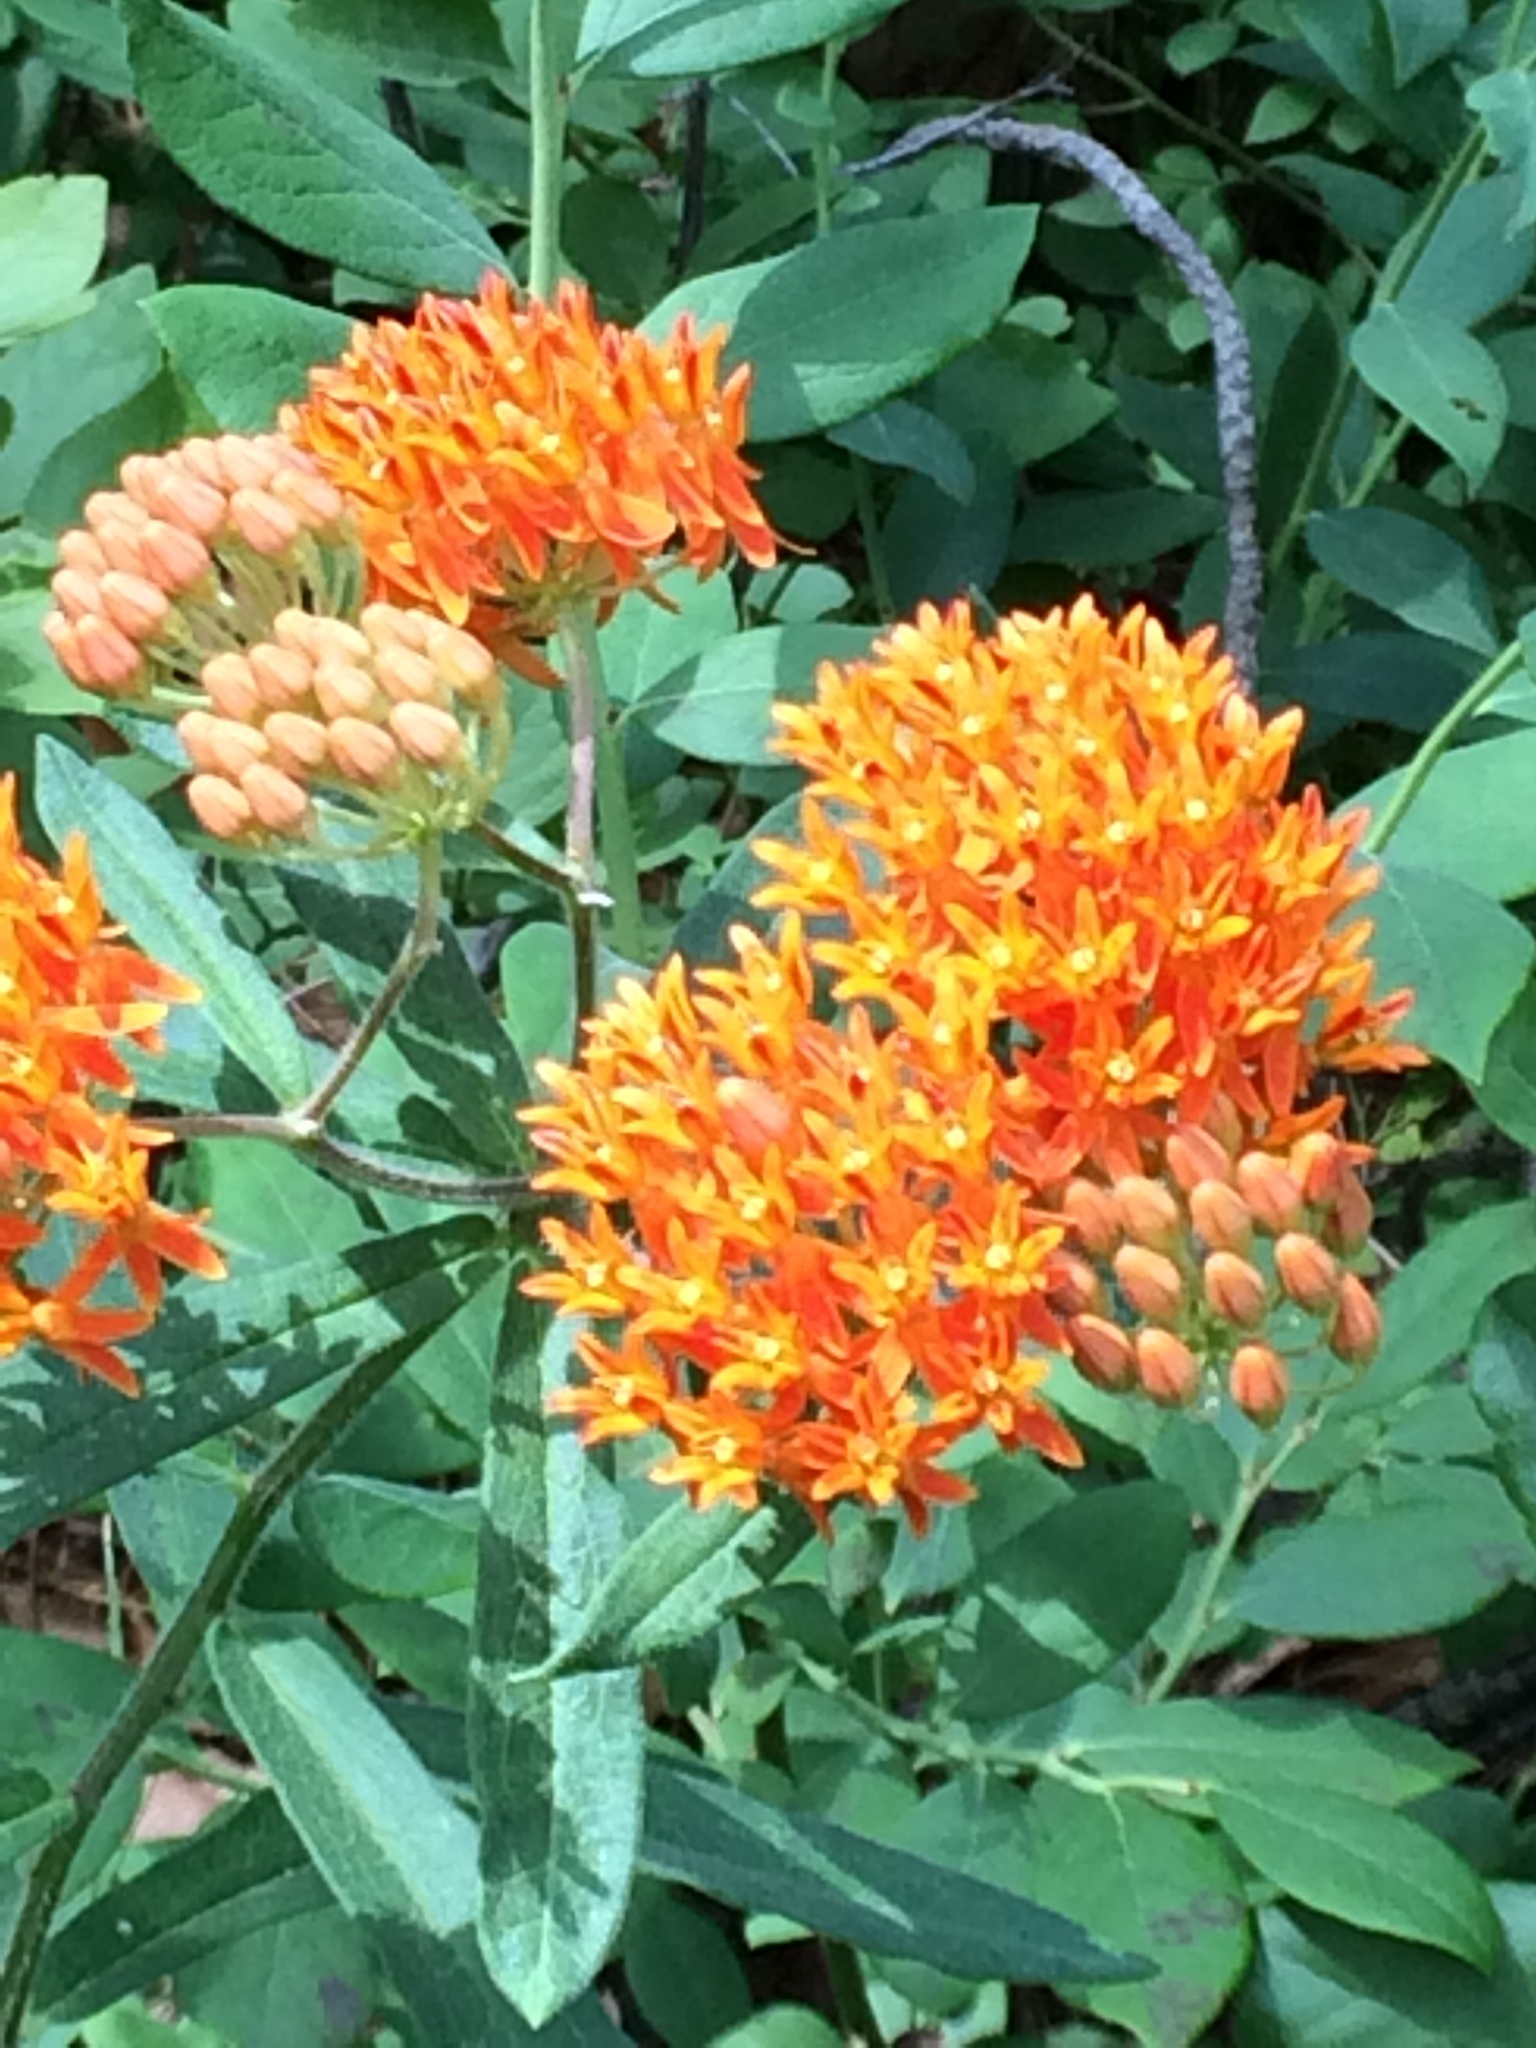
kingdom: Plantae
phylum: Tracheophyta
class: Magnoliopsida
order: Gentianales
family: Apocynaceae
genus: Asclepias
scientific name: Asclepias tuberosa
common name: Butterfly milkweed
